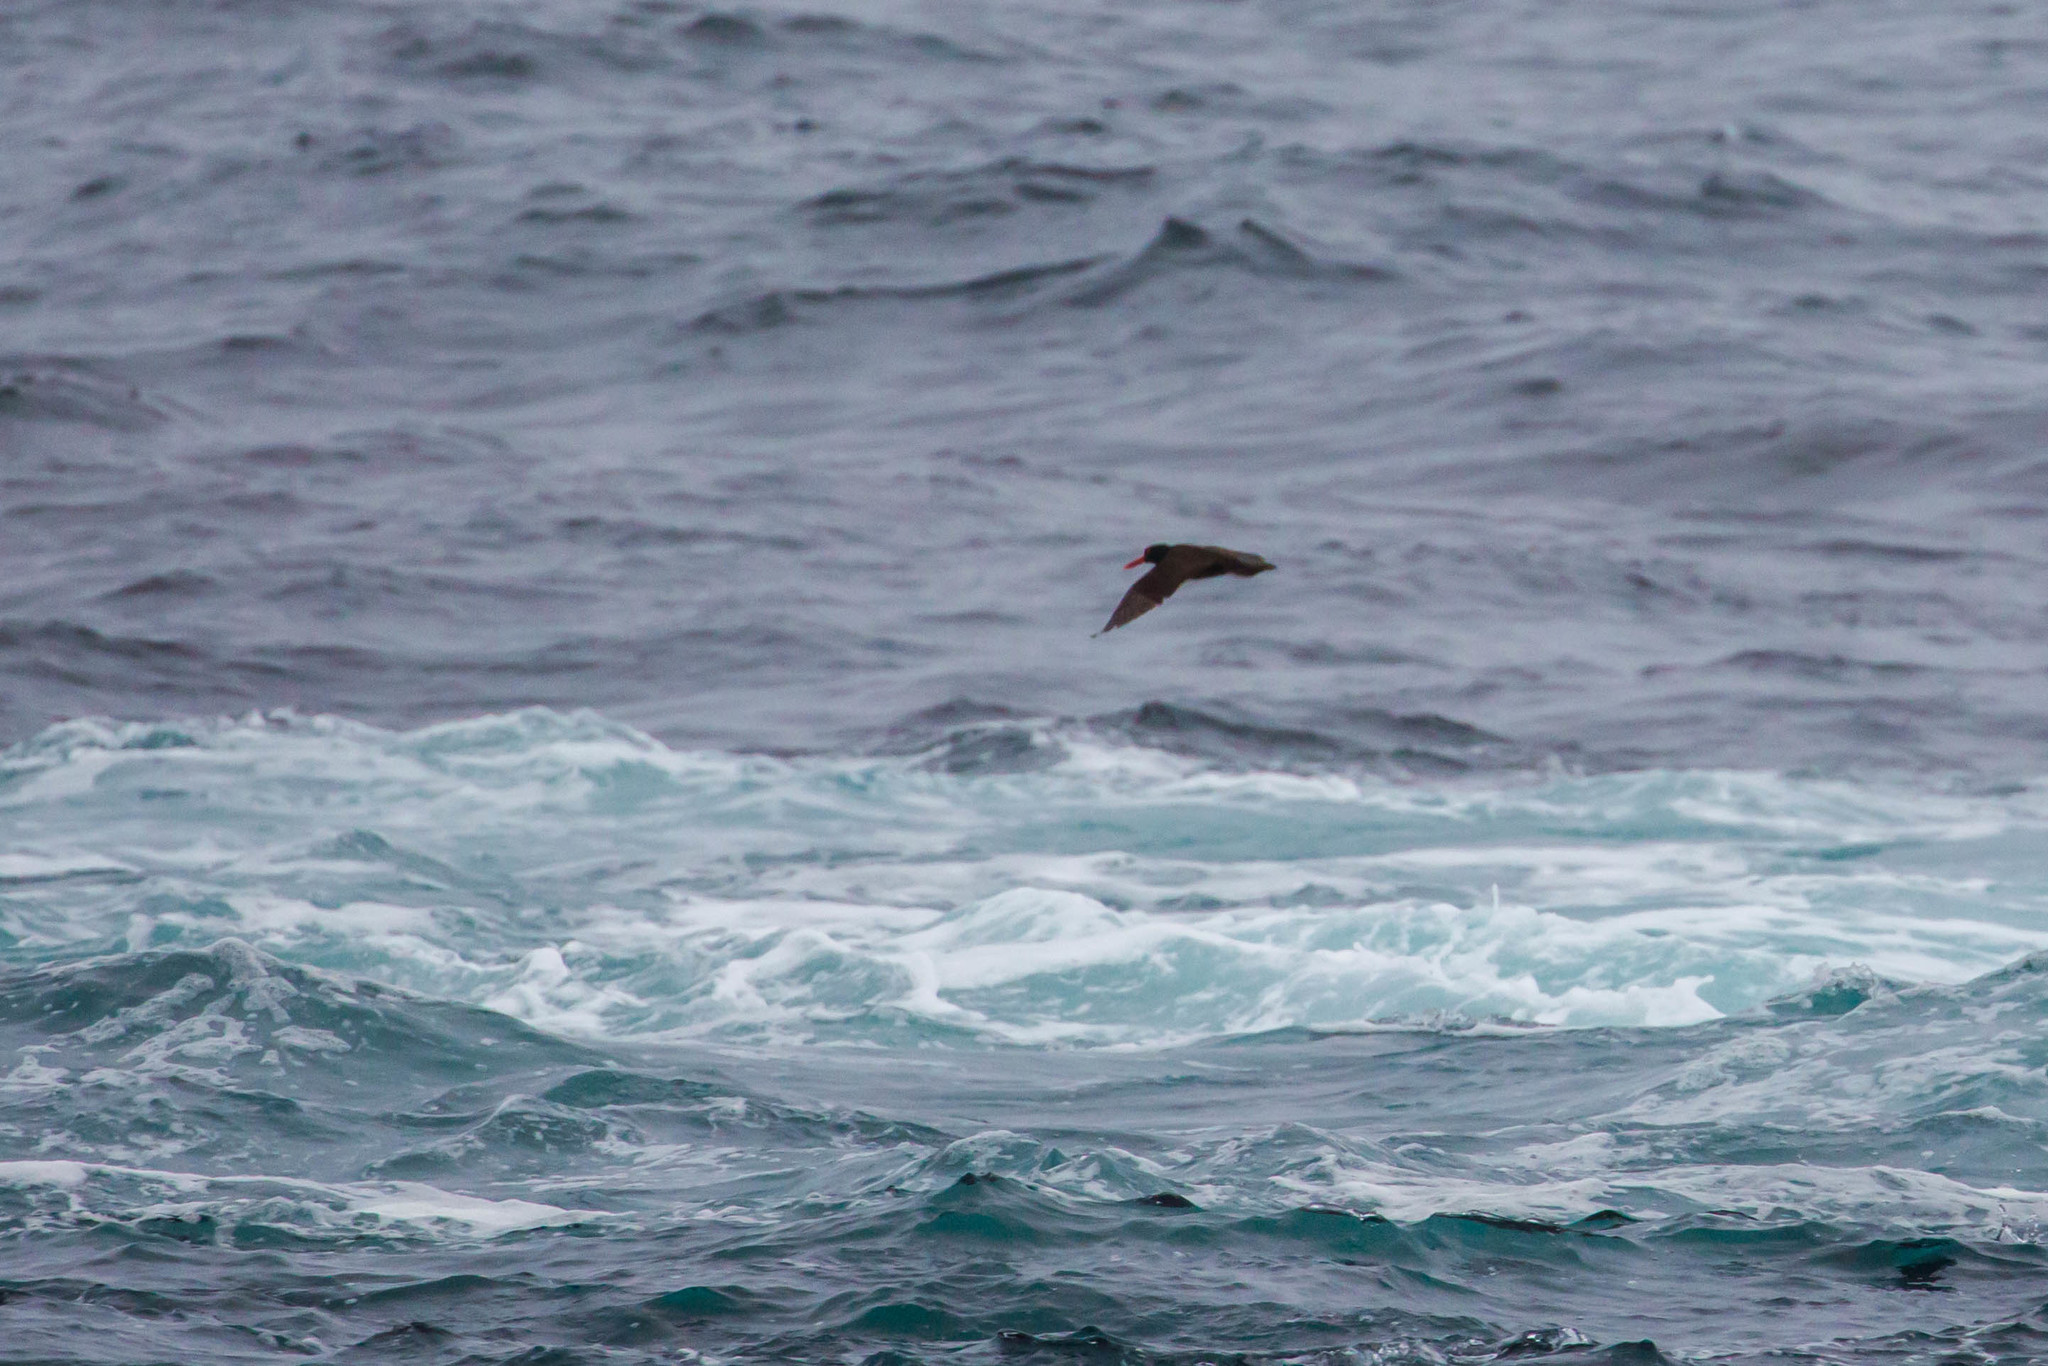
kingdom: Animalia
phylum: Chordata
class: Aves
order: Charadriiformes
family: Haematopodidae
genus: Haematopus
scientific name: Haematopus bachmani
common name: Black oystercatcher
